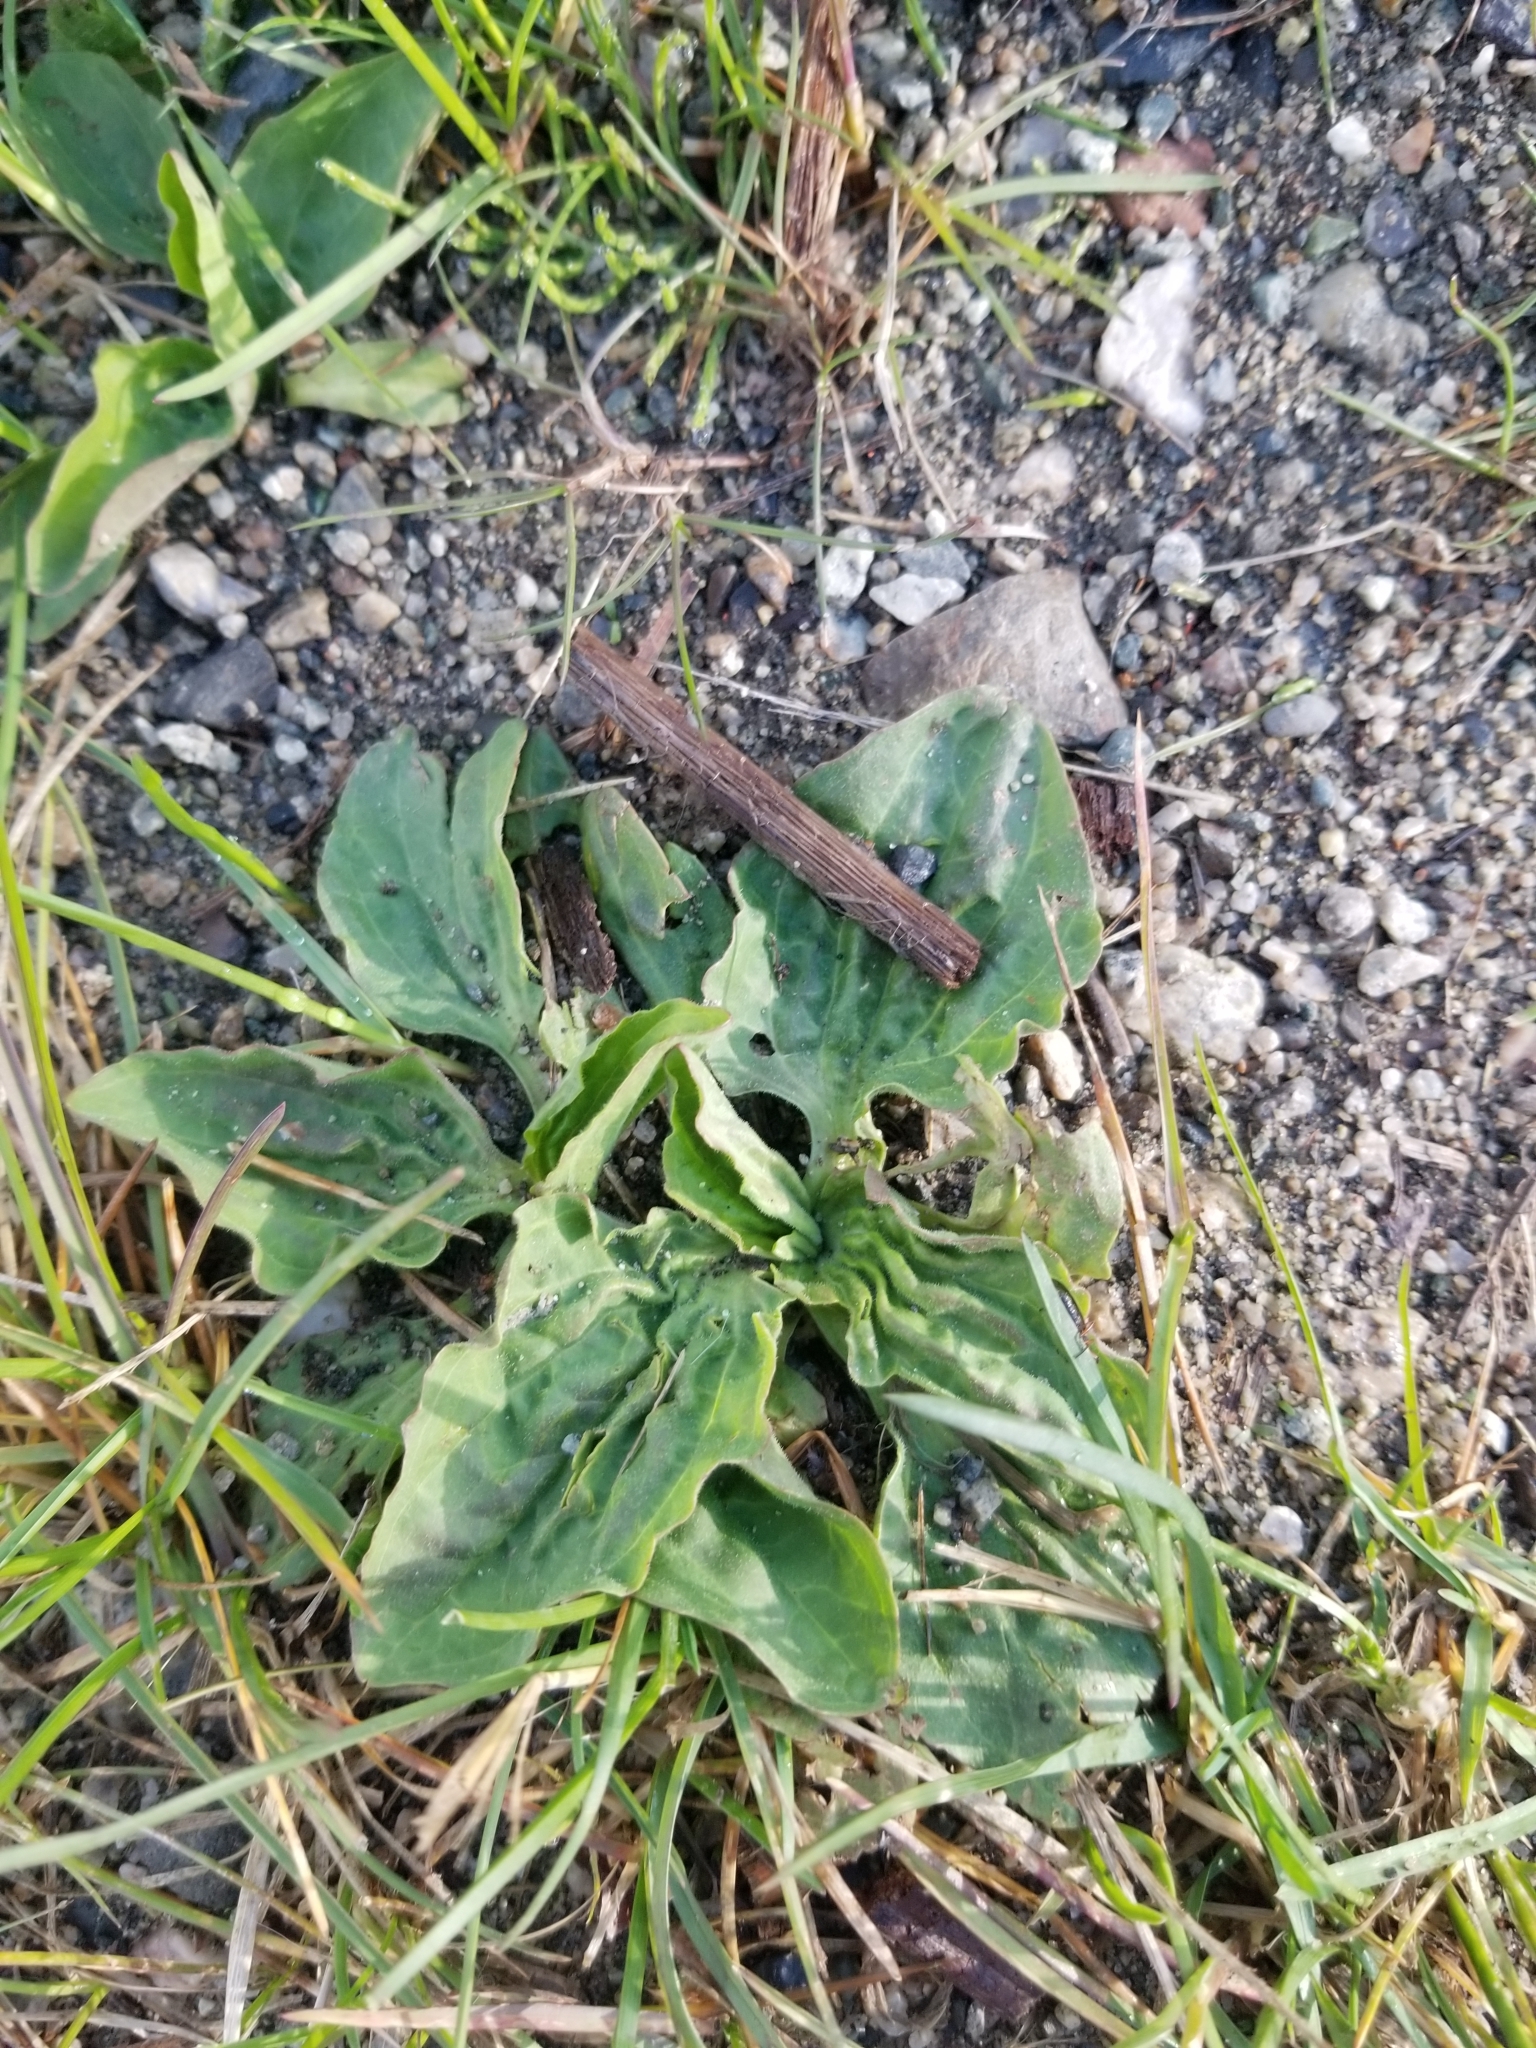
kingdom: Plantae
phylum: Tracheophyta
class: Magnoliopsida
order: Lamiales
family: Plantaginaceae
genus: Plantago
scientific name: Plantago major
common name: Common plantain
